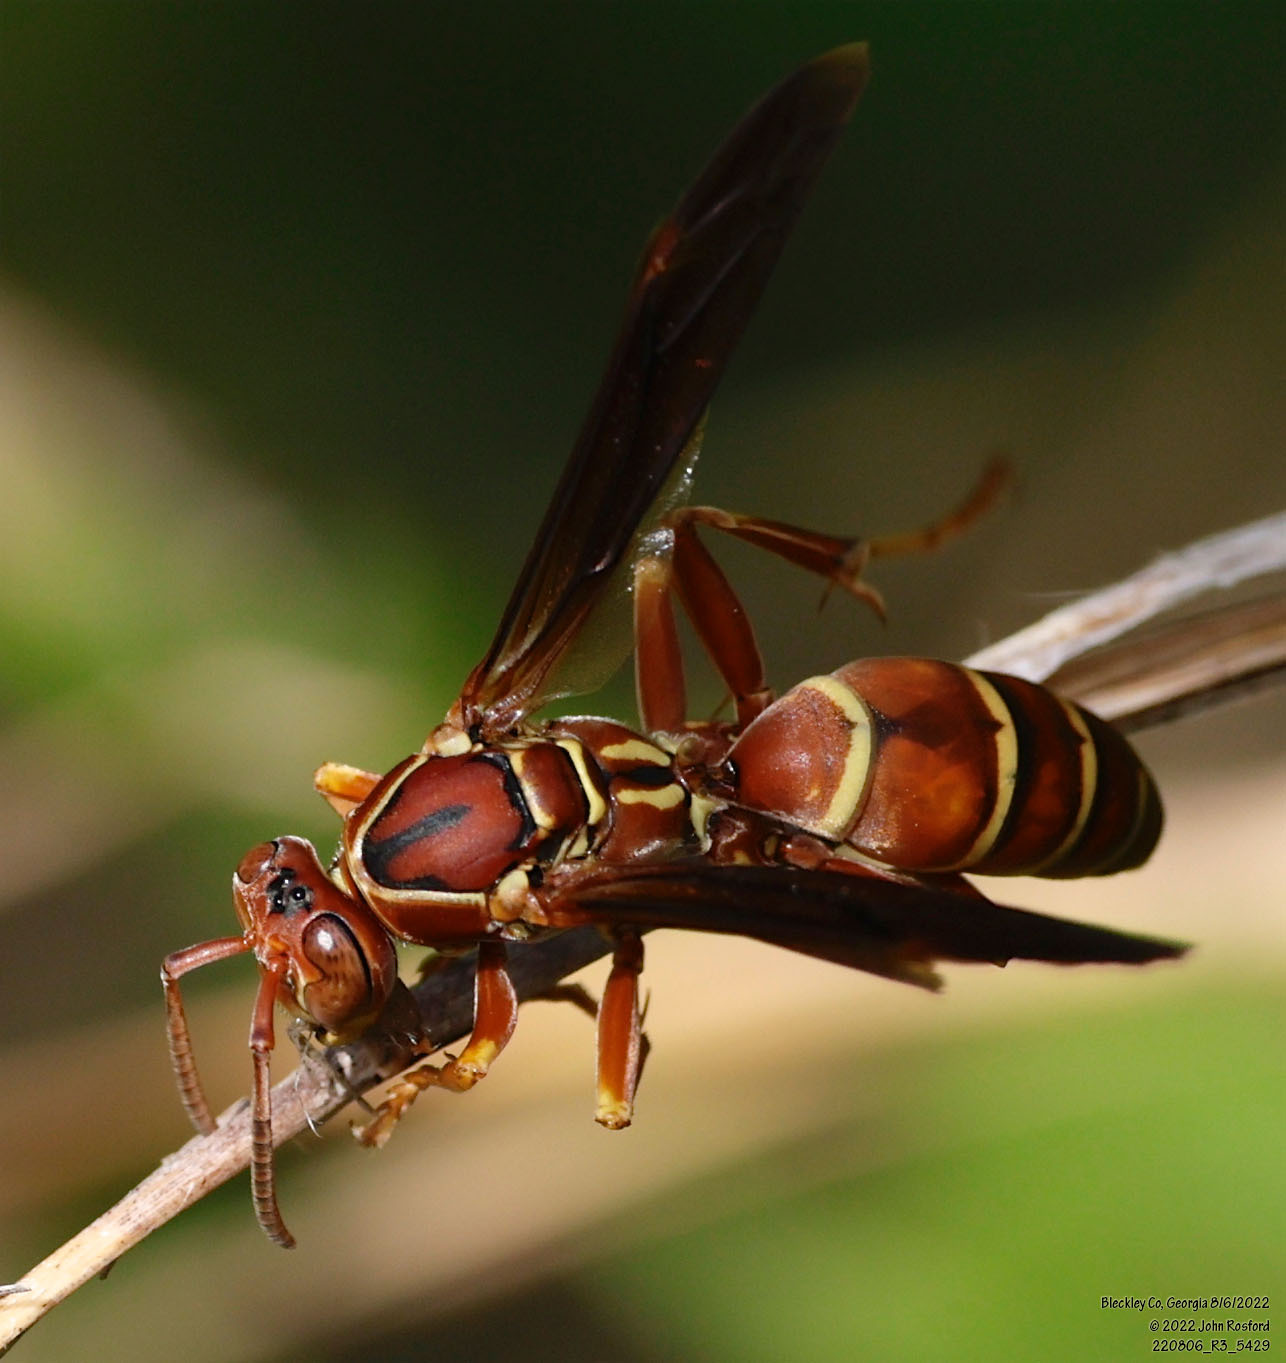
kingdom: Animalia
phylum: Arthropoda
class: Insecta
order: Hymenoptera
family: Eumenidae
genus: Polistes
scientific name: Polistes bellicosus
